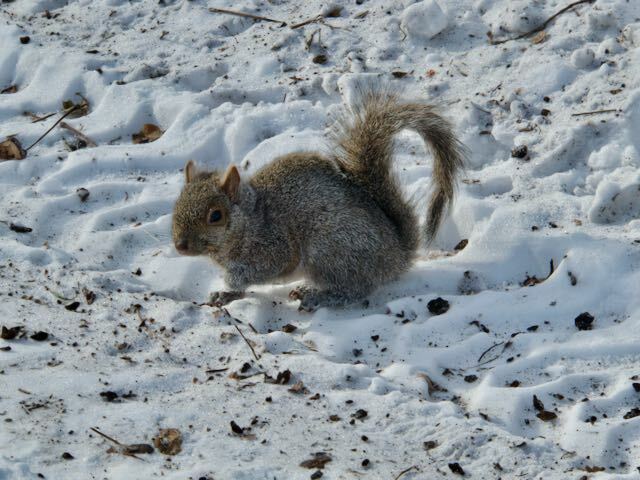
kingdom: Animalia
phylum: Chordata
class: Mammalia
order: Rodentia
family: Sciuridae
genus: Sciurus
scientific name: Sciurus carolinensis
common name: Eastern gray squirrel
